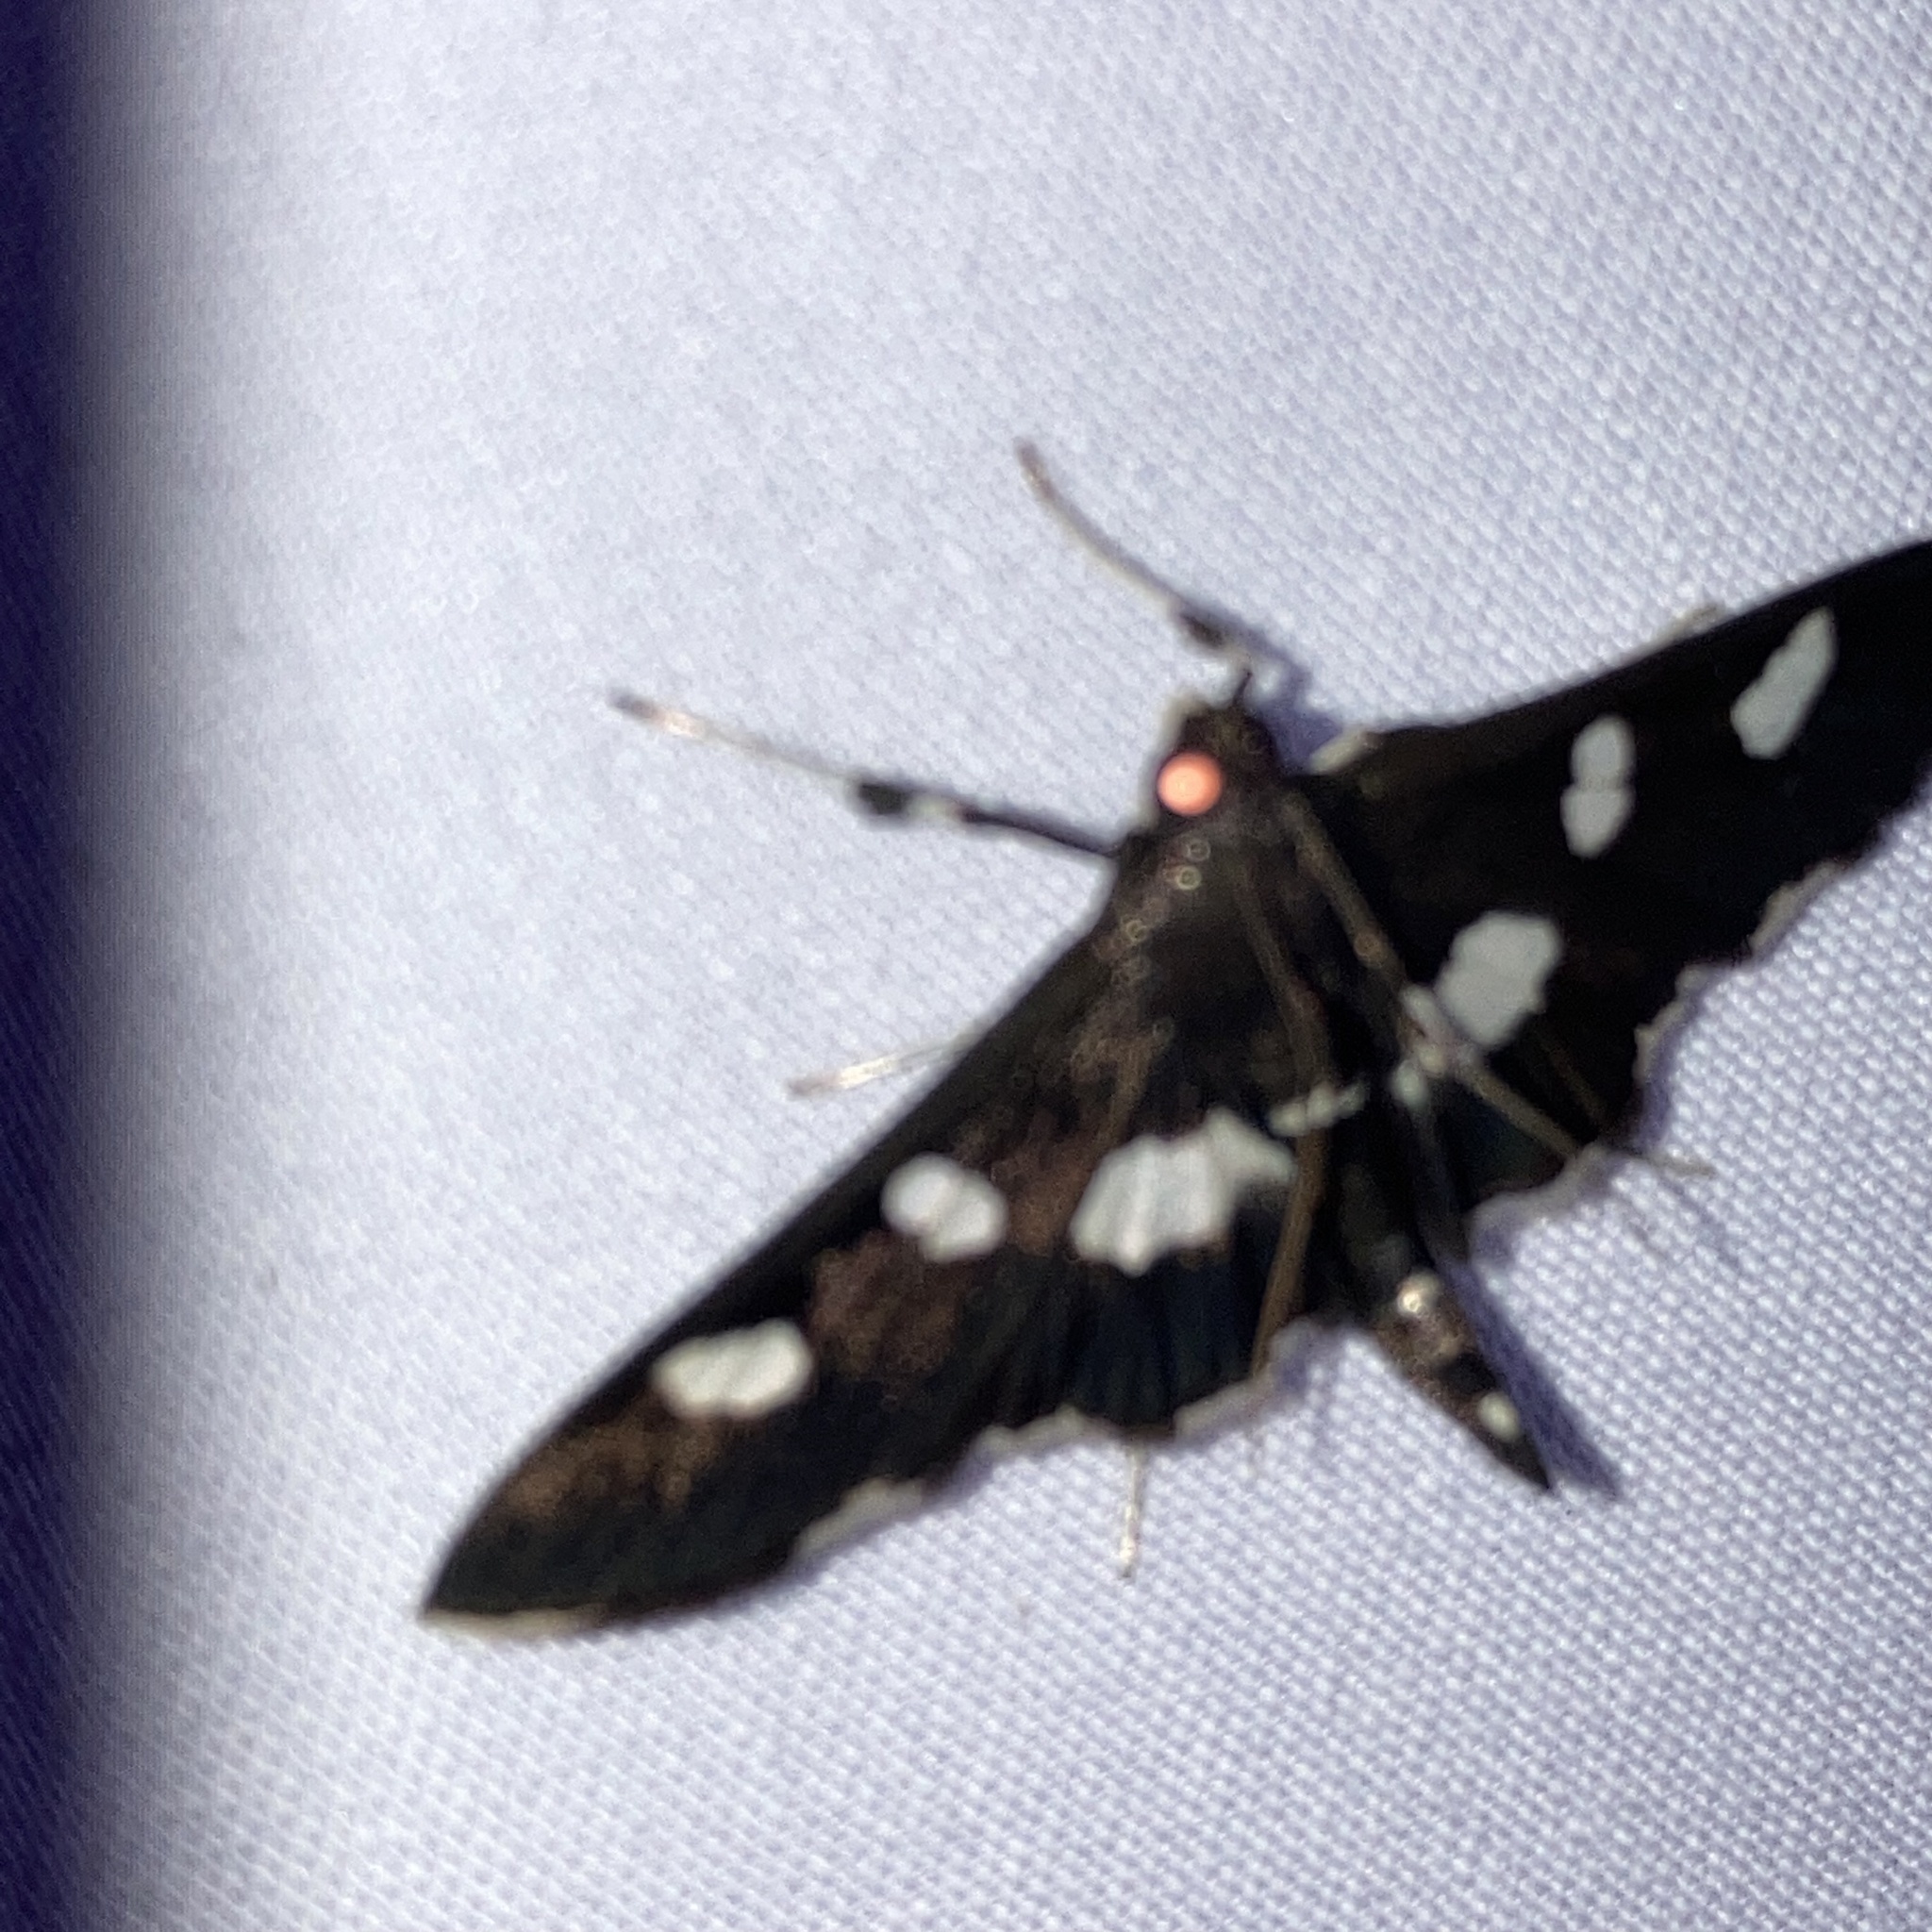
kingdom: Animalia
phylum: Arthropoda
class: Insecta
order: Lepidoptera
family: Crambidae
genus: Desmia
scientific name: Desmia
